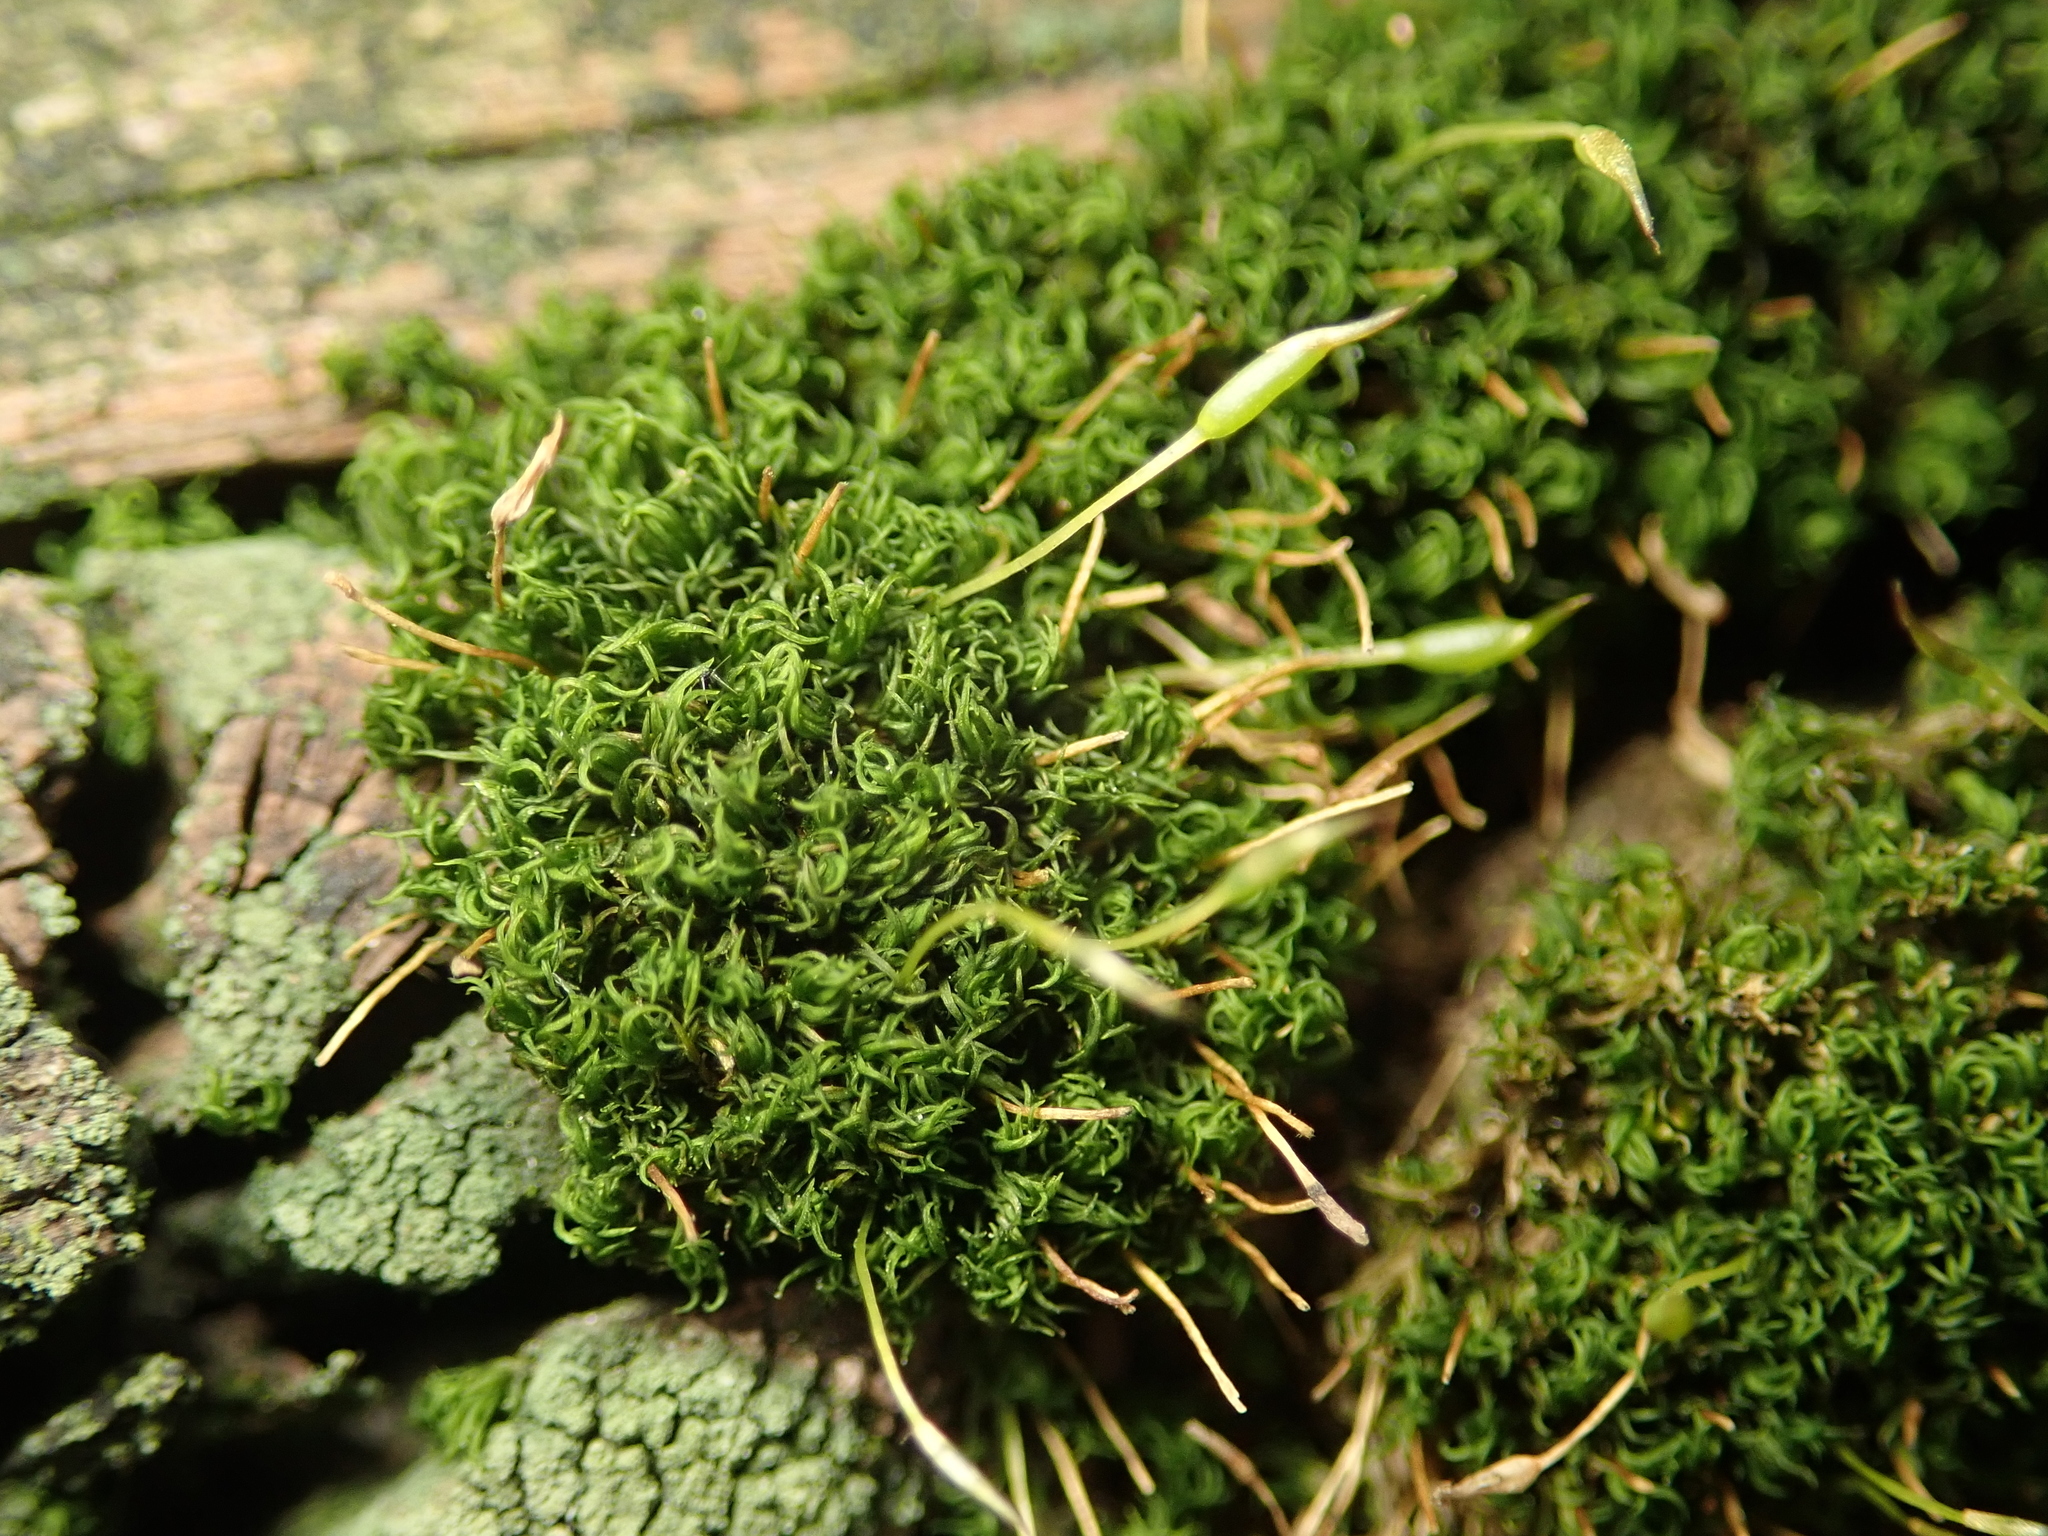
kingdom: Plantae
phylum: Bryophyta
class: Bryopsida
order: Dicranales
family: Rhabdoweisiaceae
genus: Dicranoweisia
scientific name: Dicranoweisia cirrata
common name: Common pincushion
